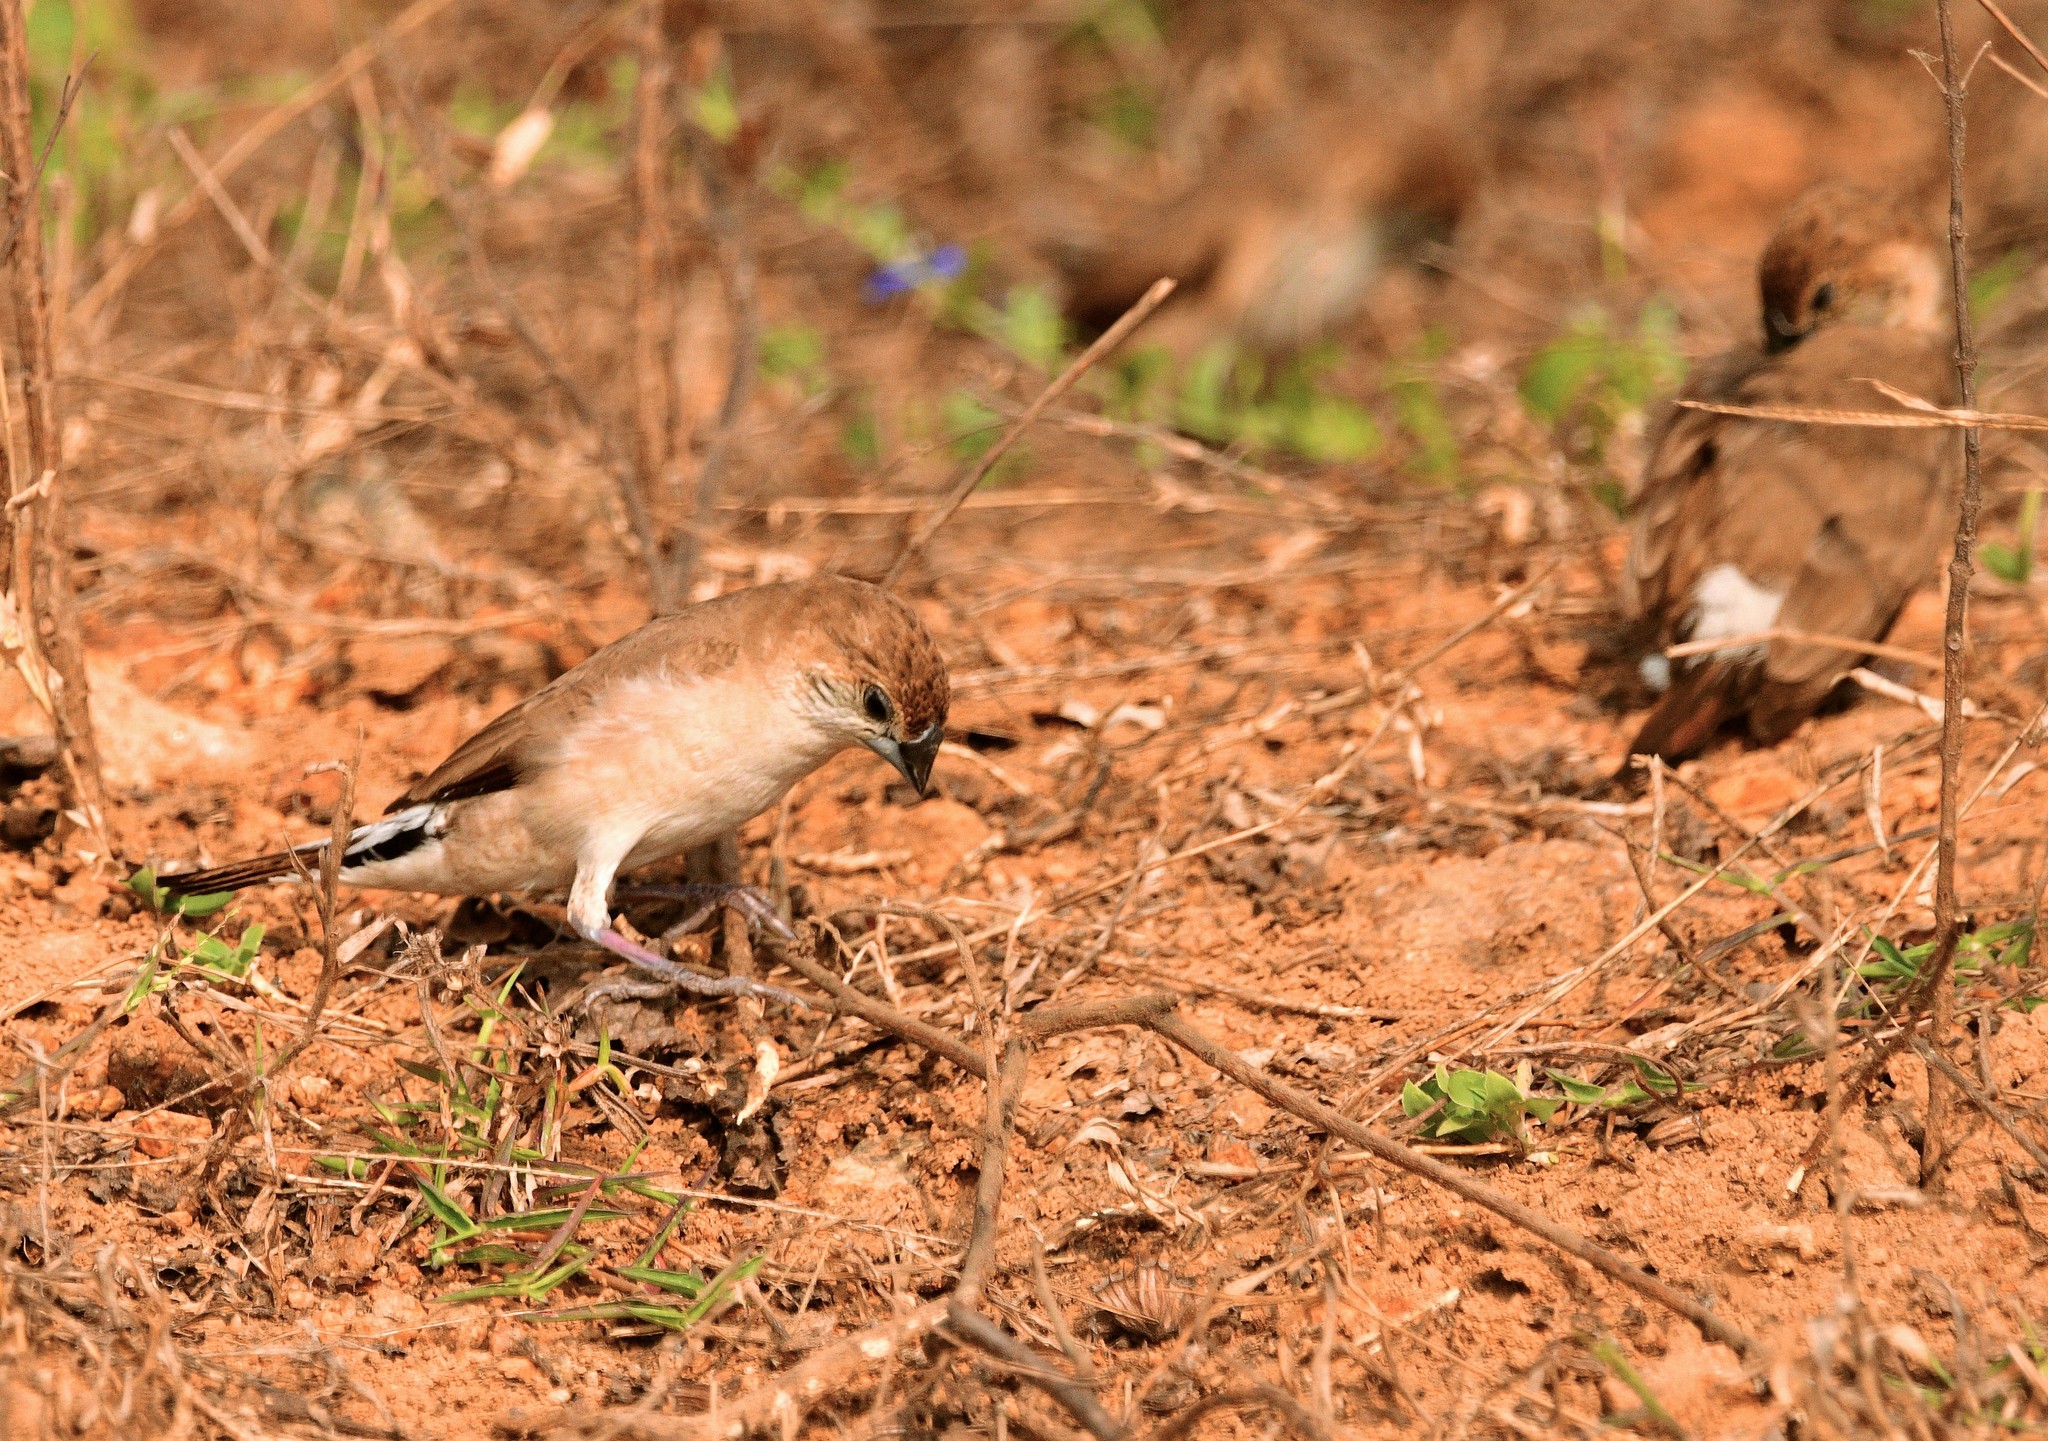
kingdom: Animalia
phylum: Chordata
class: Aves
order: Passeriformes
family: Estrildidae
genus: Euodice
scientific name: Euodice malabarica
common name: Indian silverbill
